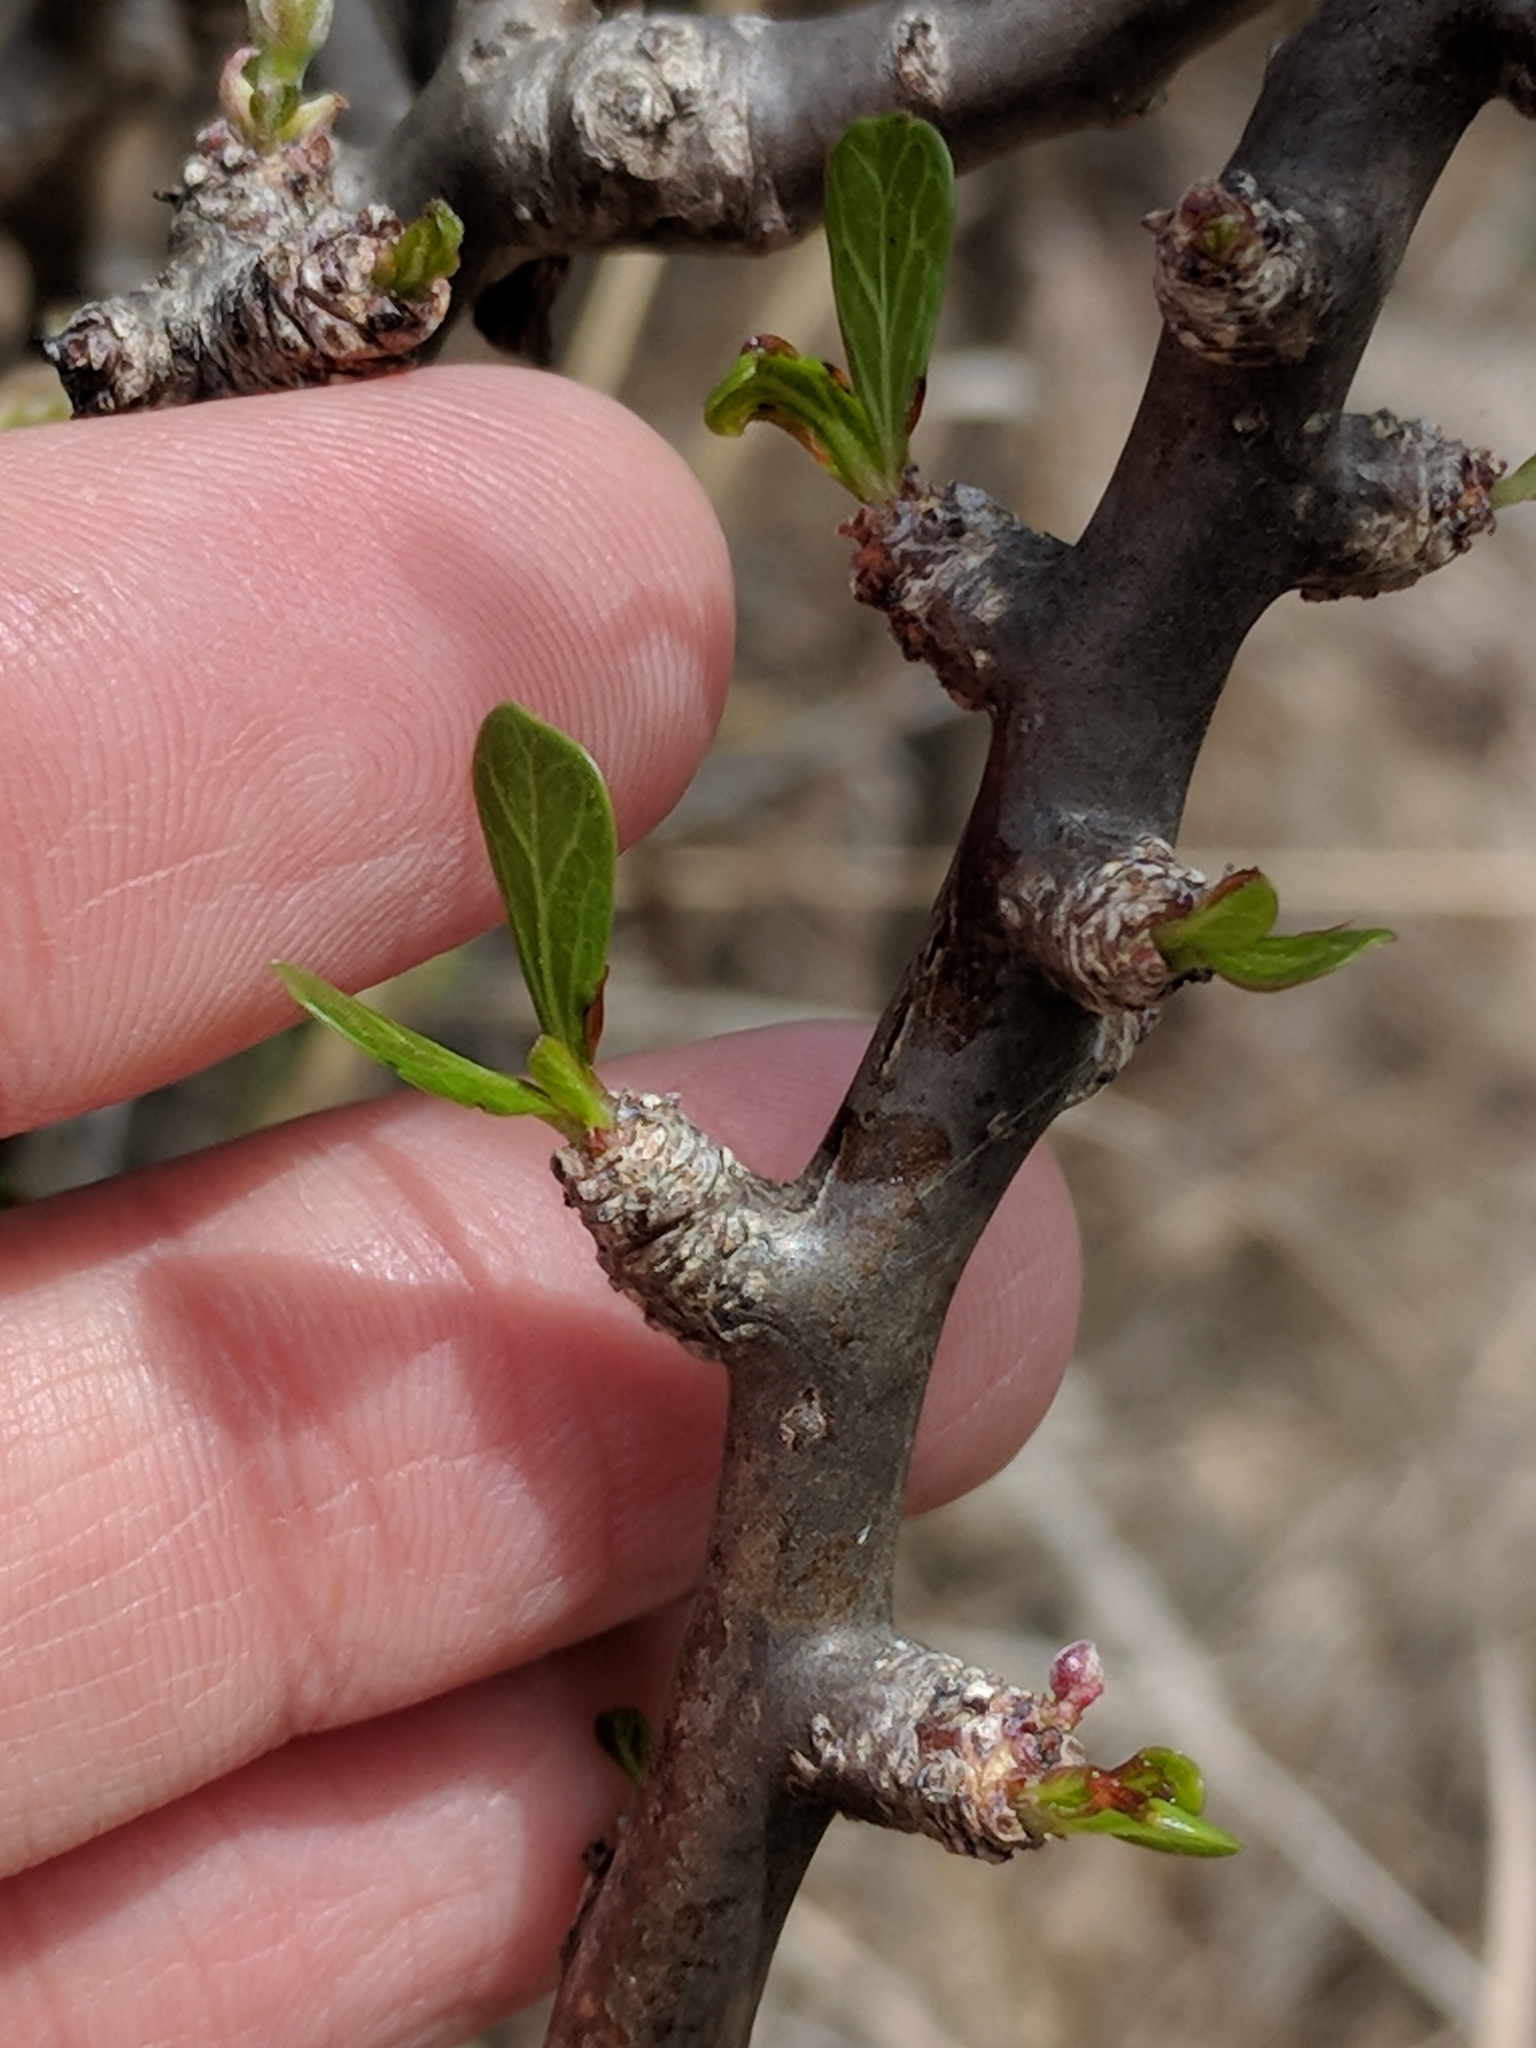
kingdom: Plantae
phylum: Tracheophyta
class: Magnoliopsida
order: Malpighiales
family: Euphorbiaceae
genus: Jatropha
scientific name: Jatropha dioica
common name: Leatherstem
